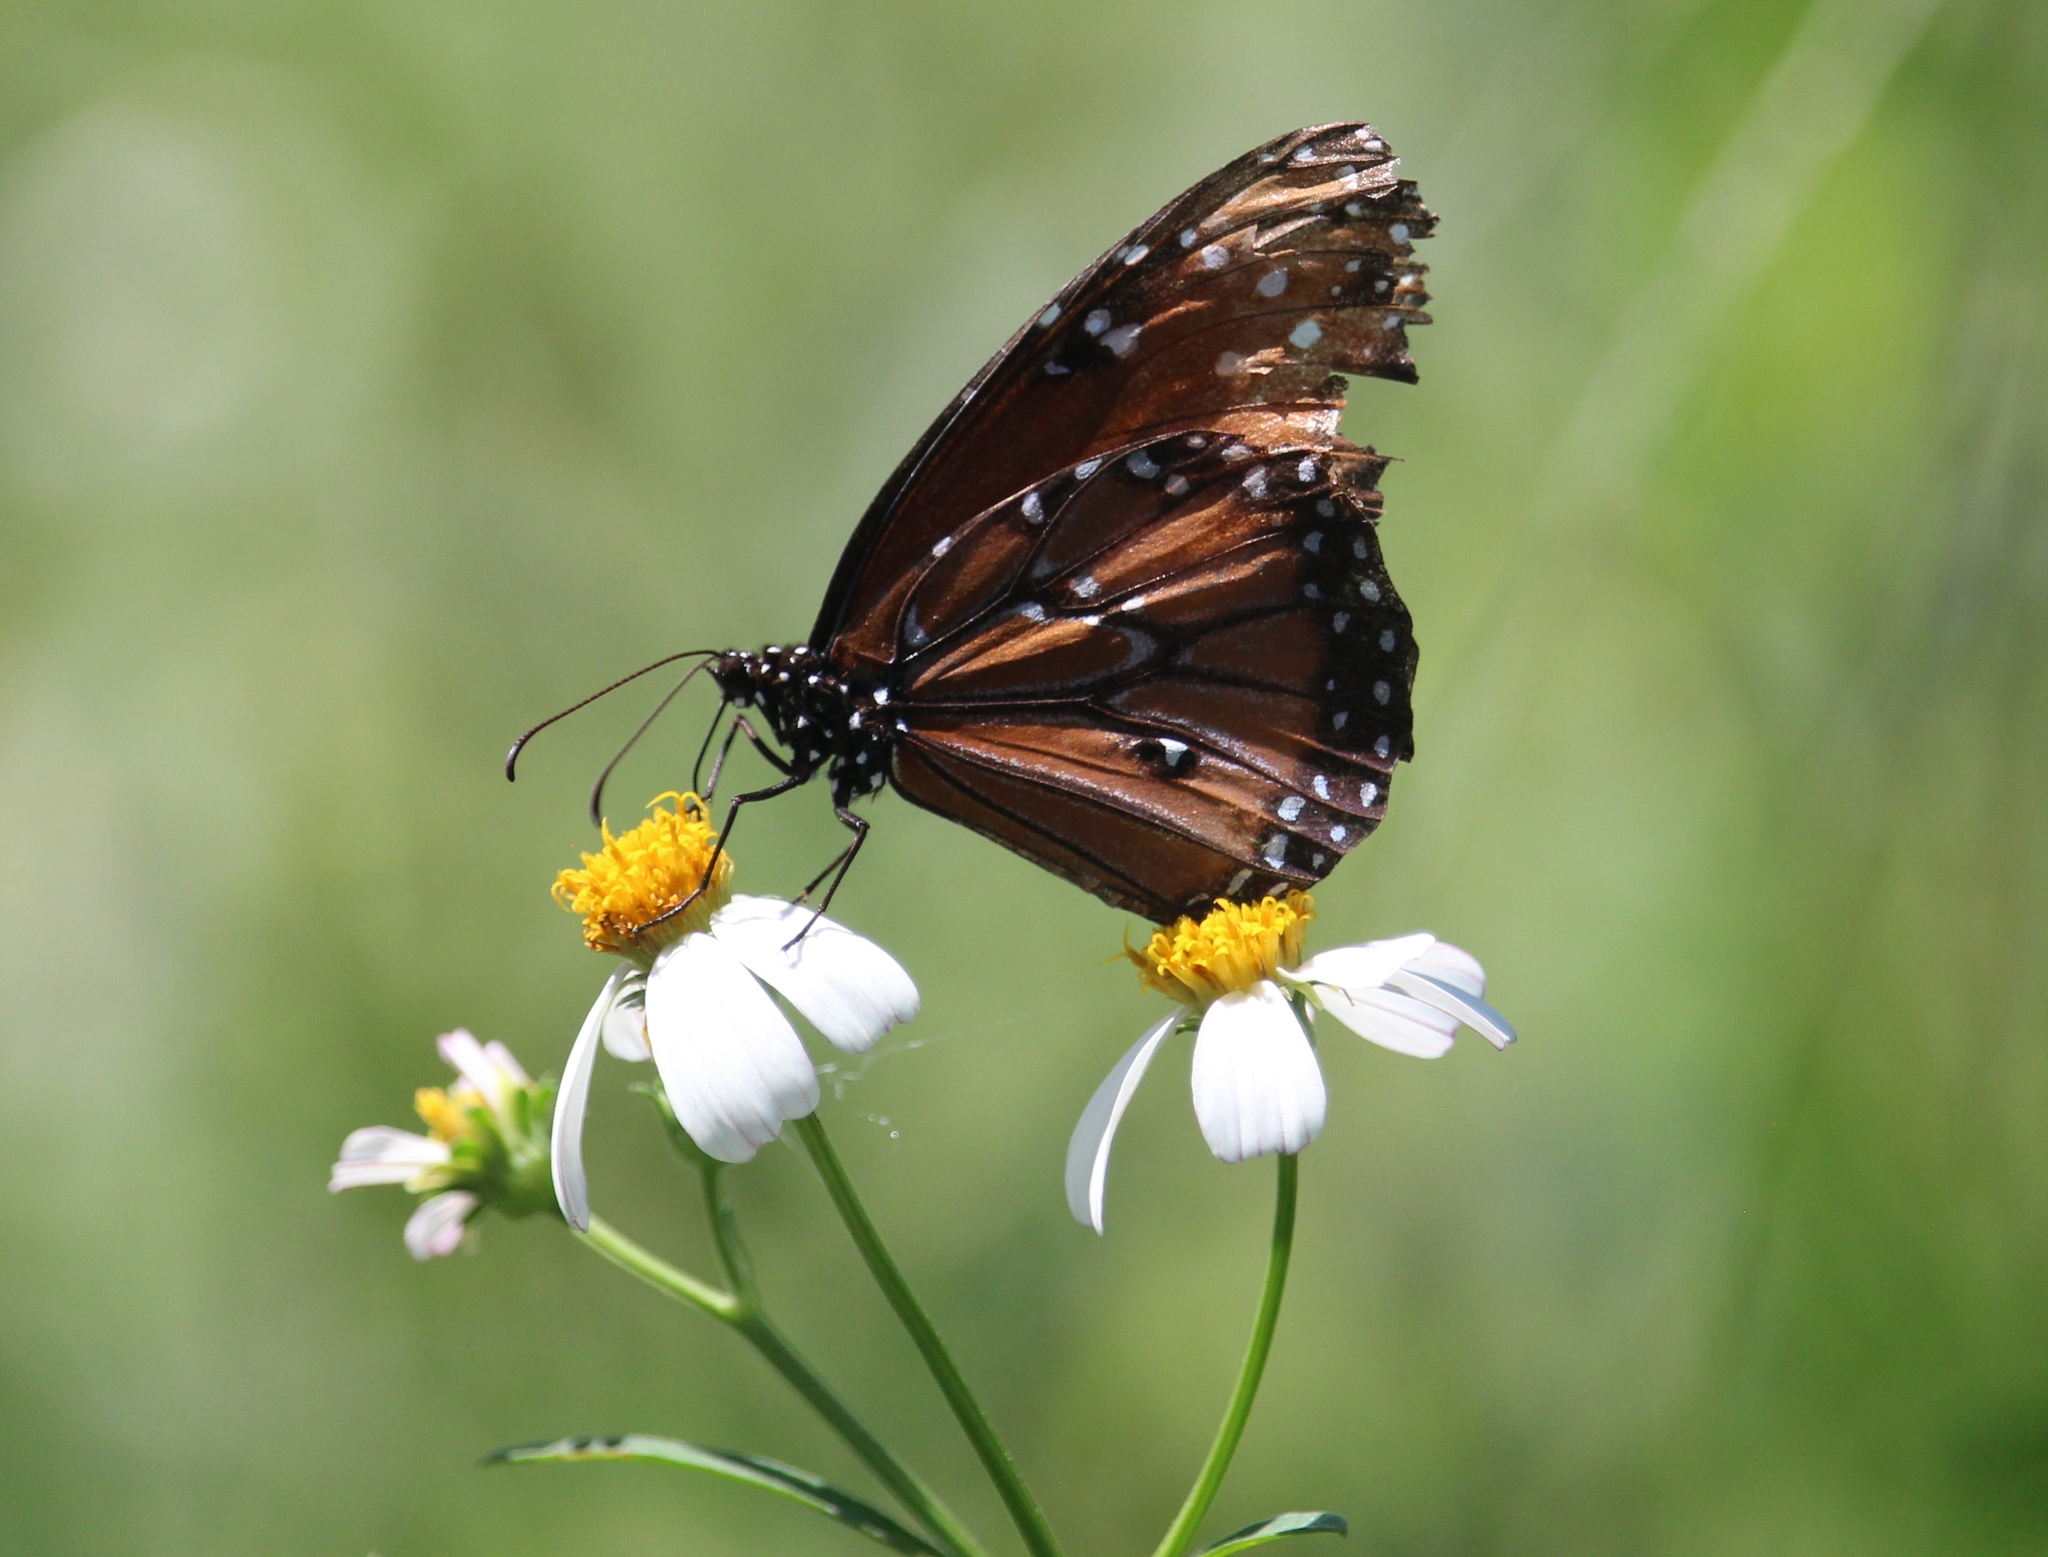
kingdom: Animalia
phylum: Arthropoda
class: Insecta
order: Lepidoptera
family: Nymphalidae
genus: Danaus
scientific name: Danaus gilippus
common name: Queen
